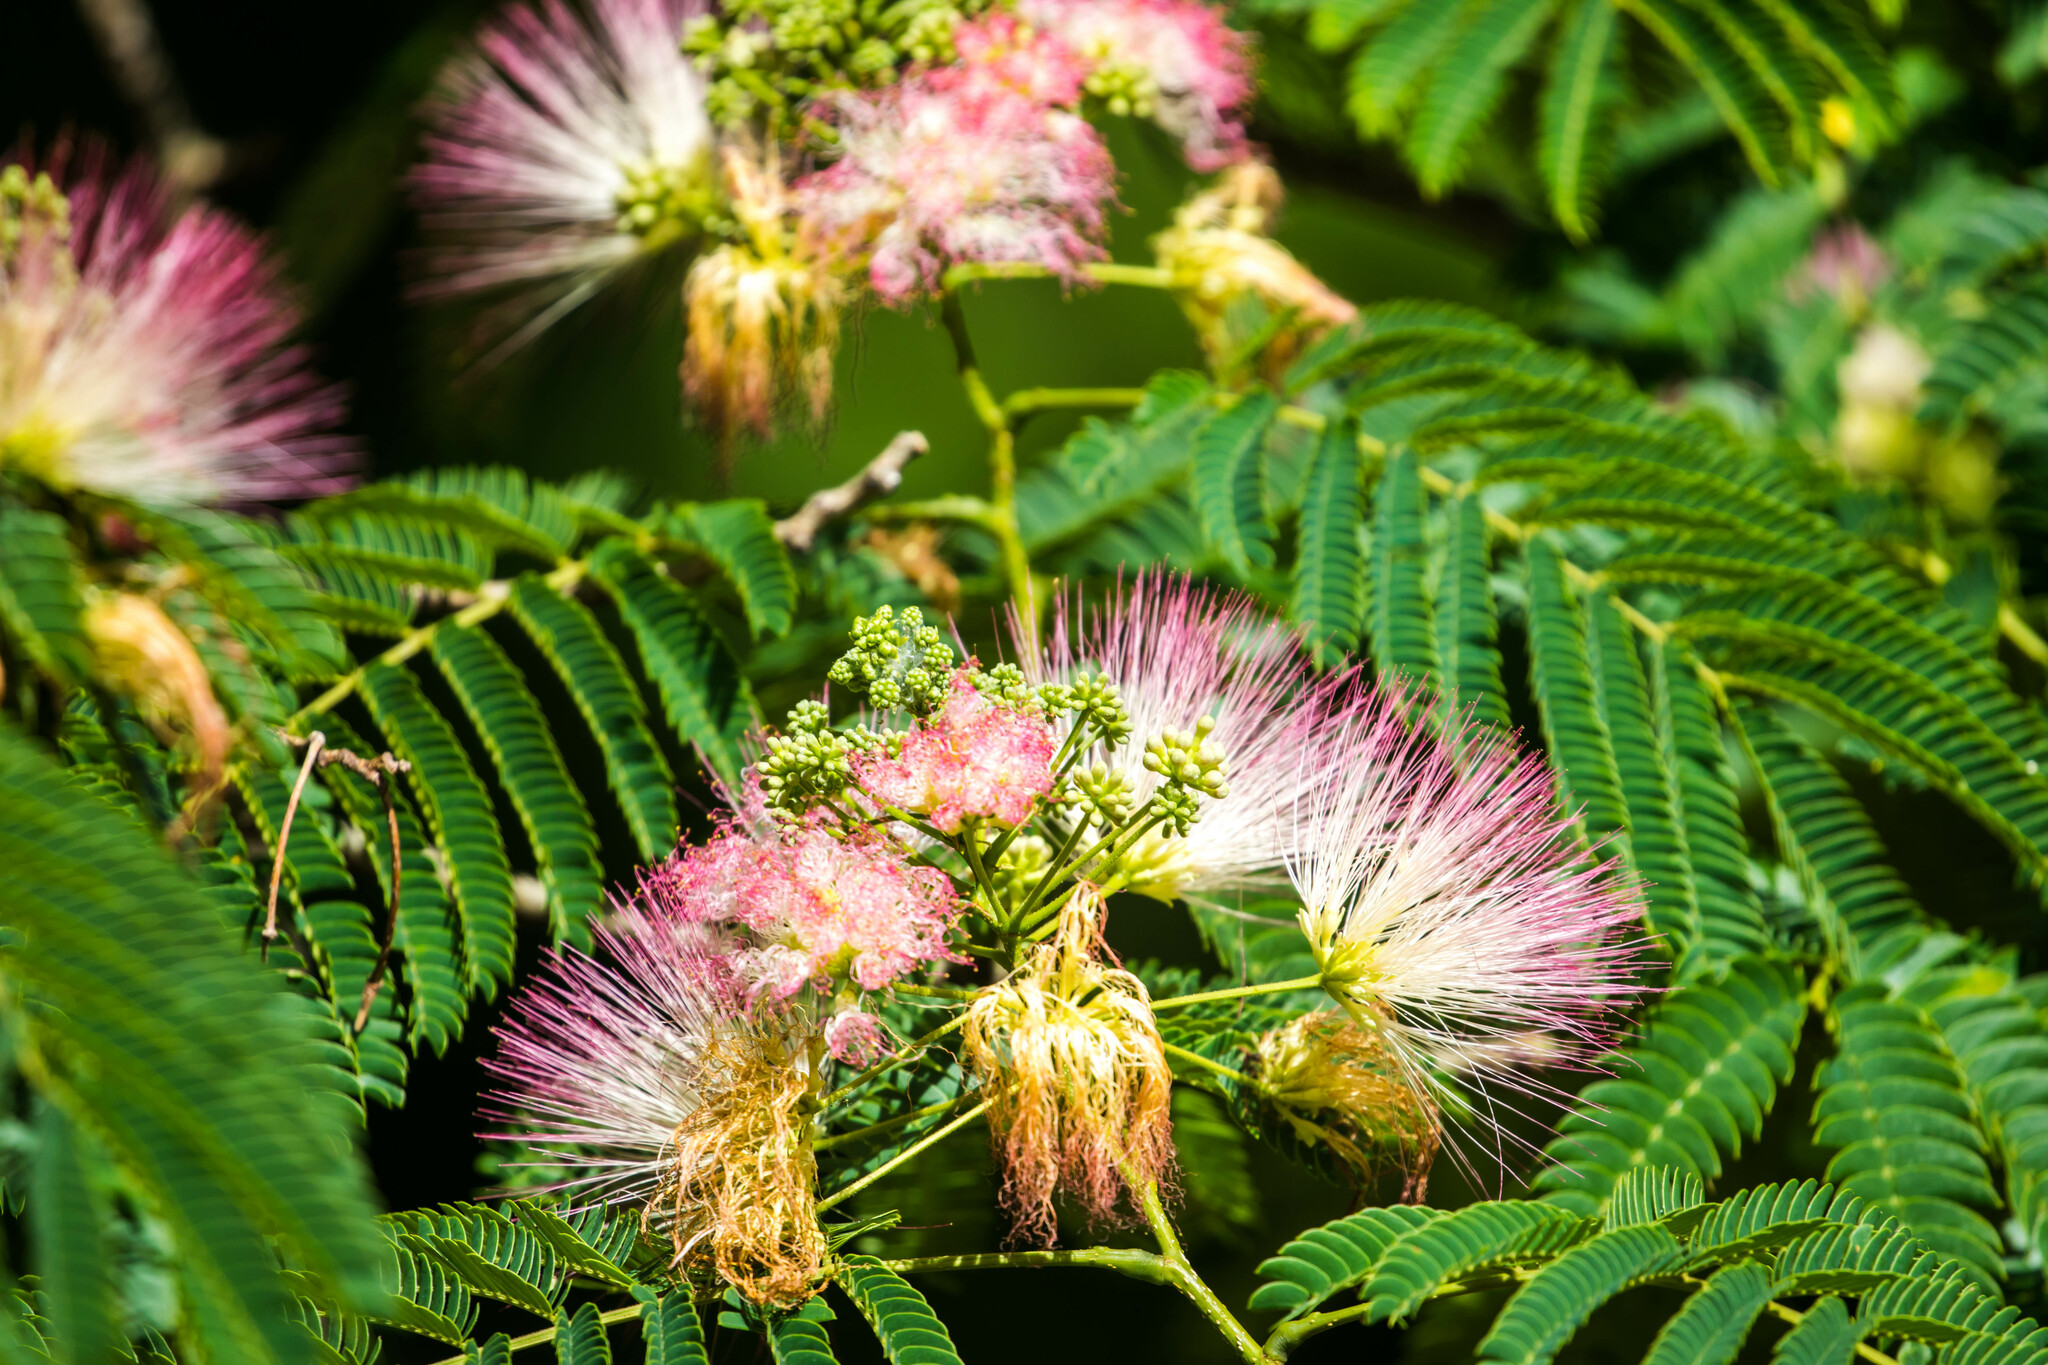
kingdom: Plantae
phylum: Tracheophyta
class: Magnoliopsida
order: Fabales
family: Fabaceae
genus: Albizia
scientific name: Albizia julibrissin
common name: Silktree
